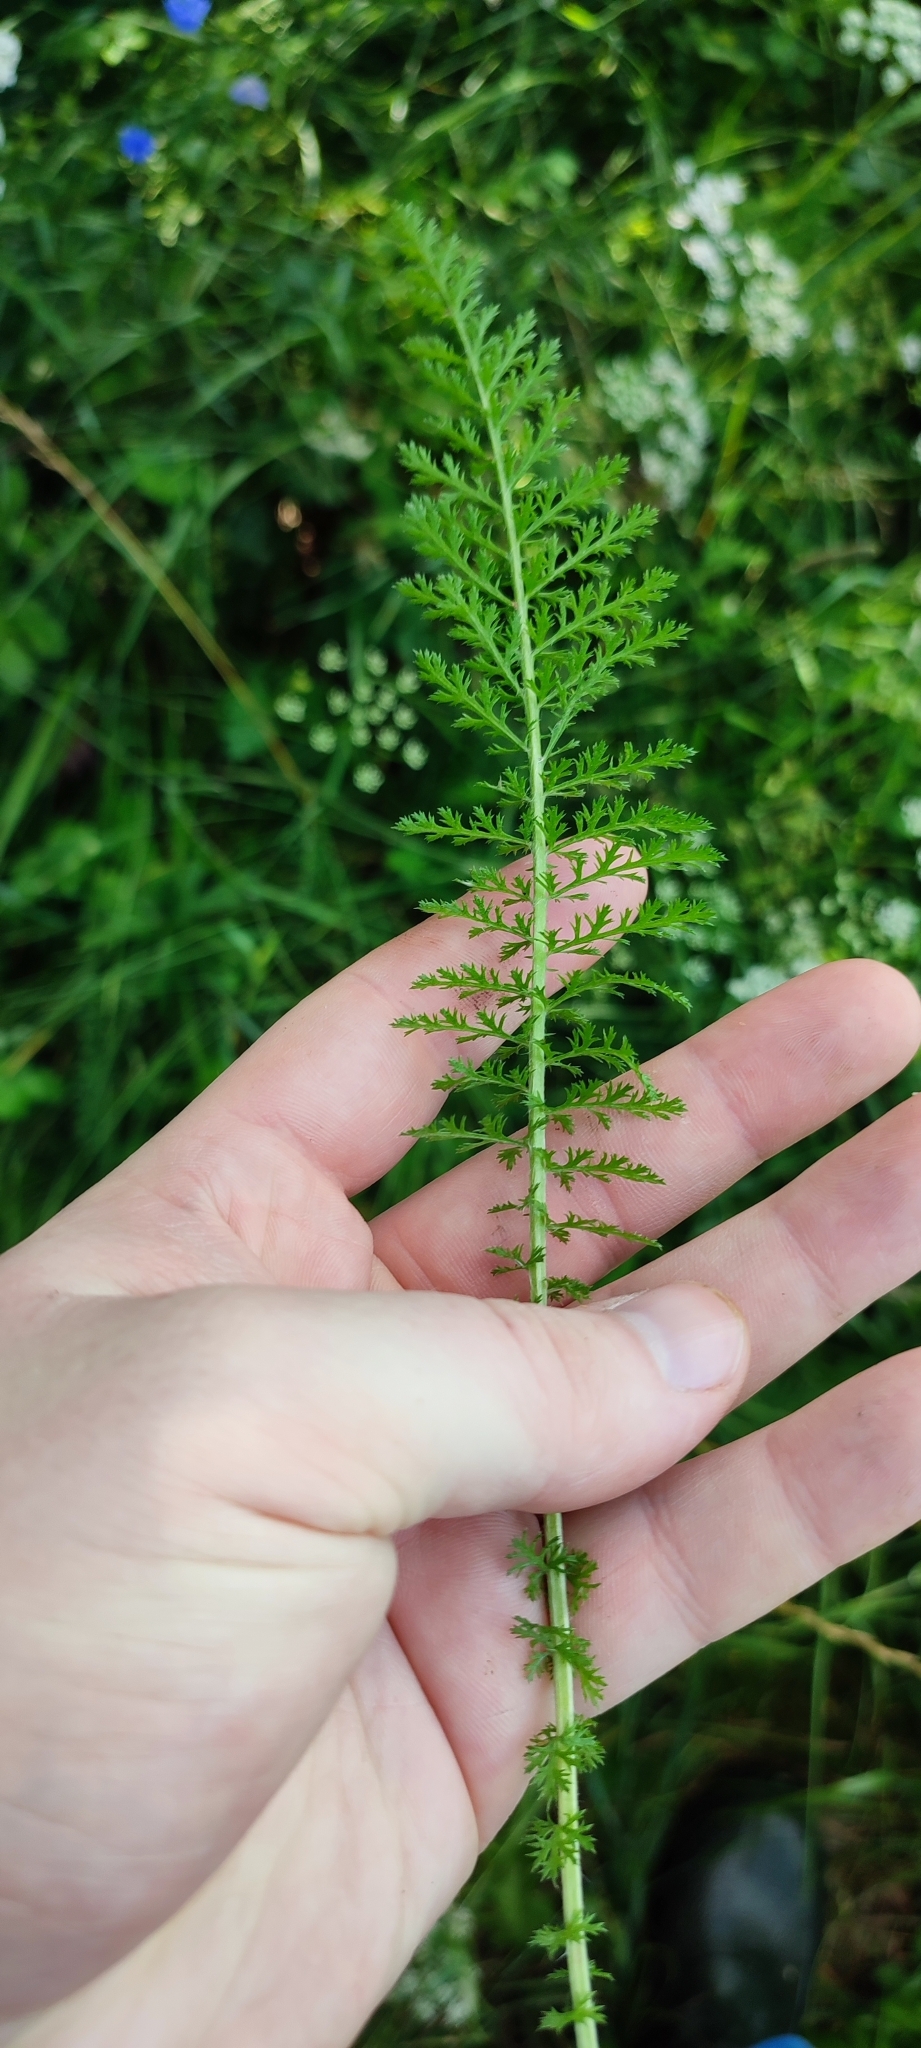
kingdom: Plantae
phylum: Tracheophyta
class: Magnoliopsida
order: Asterales
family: Asteraceae
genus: Achillea
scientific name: Achillea asiatica
